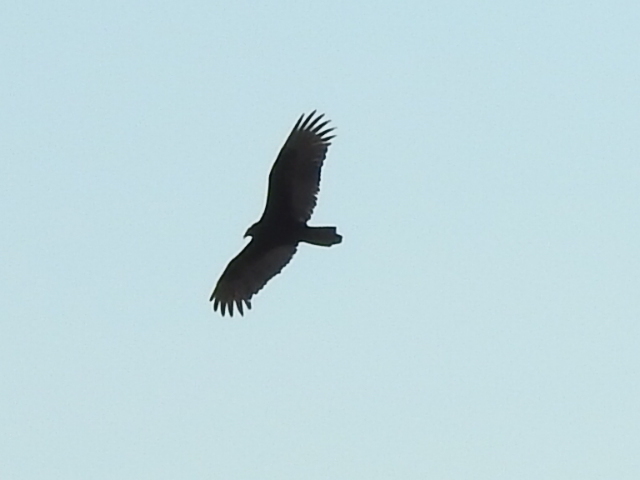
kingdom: Animalia
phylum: Chordata
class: Aves
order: Accipitriformes
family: Cathartidae
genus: Cathartes
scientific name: Cathartes aura
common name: Turkey vulture
